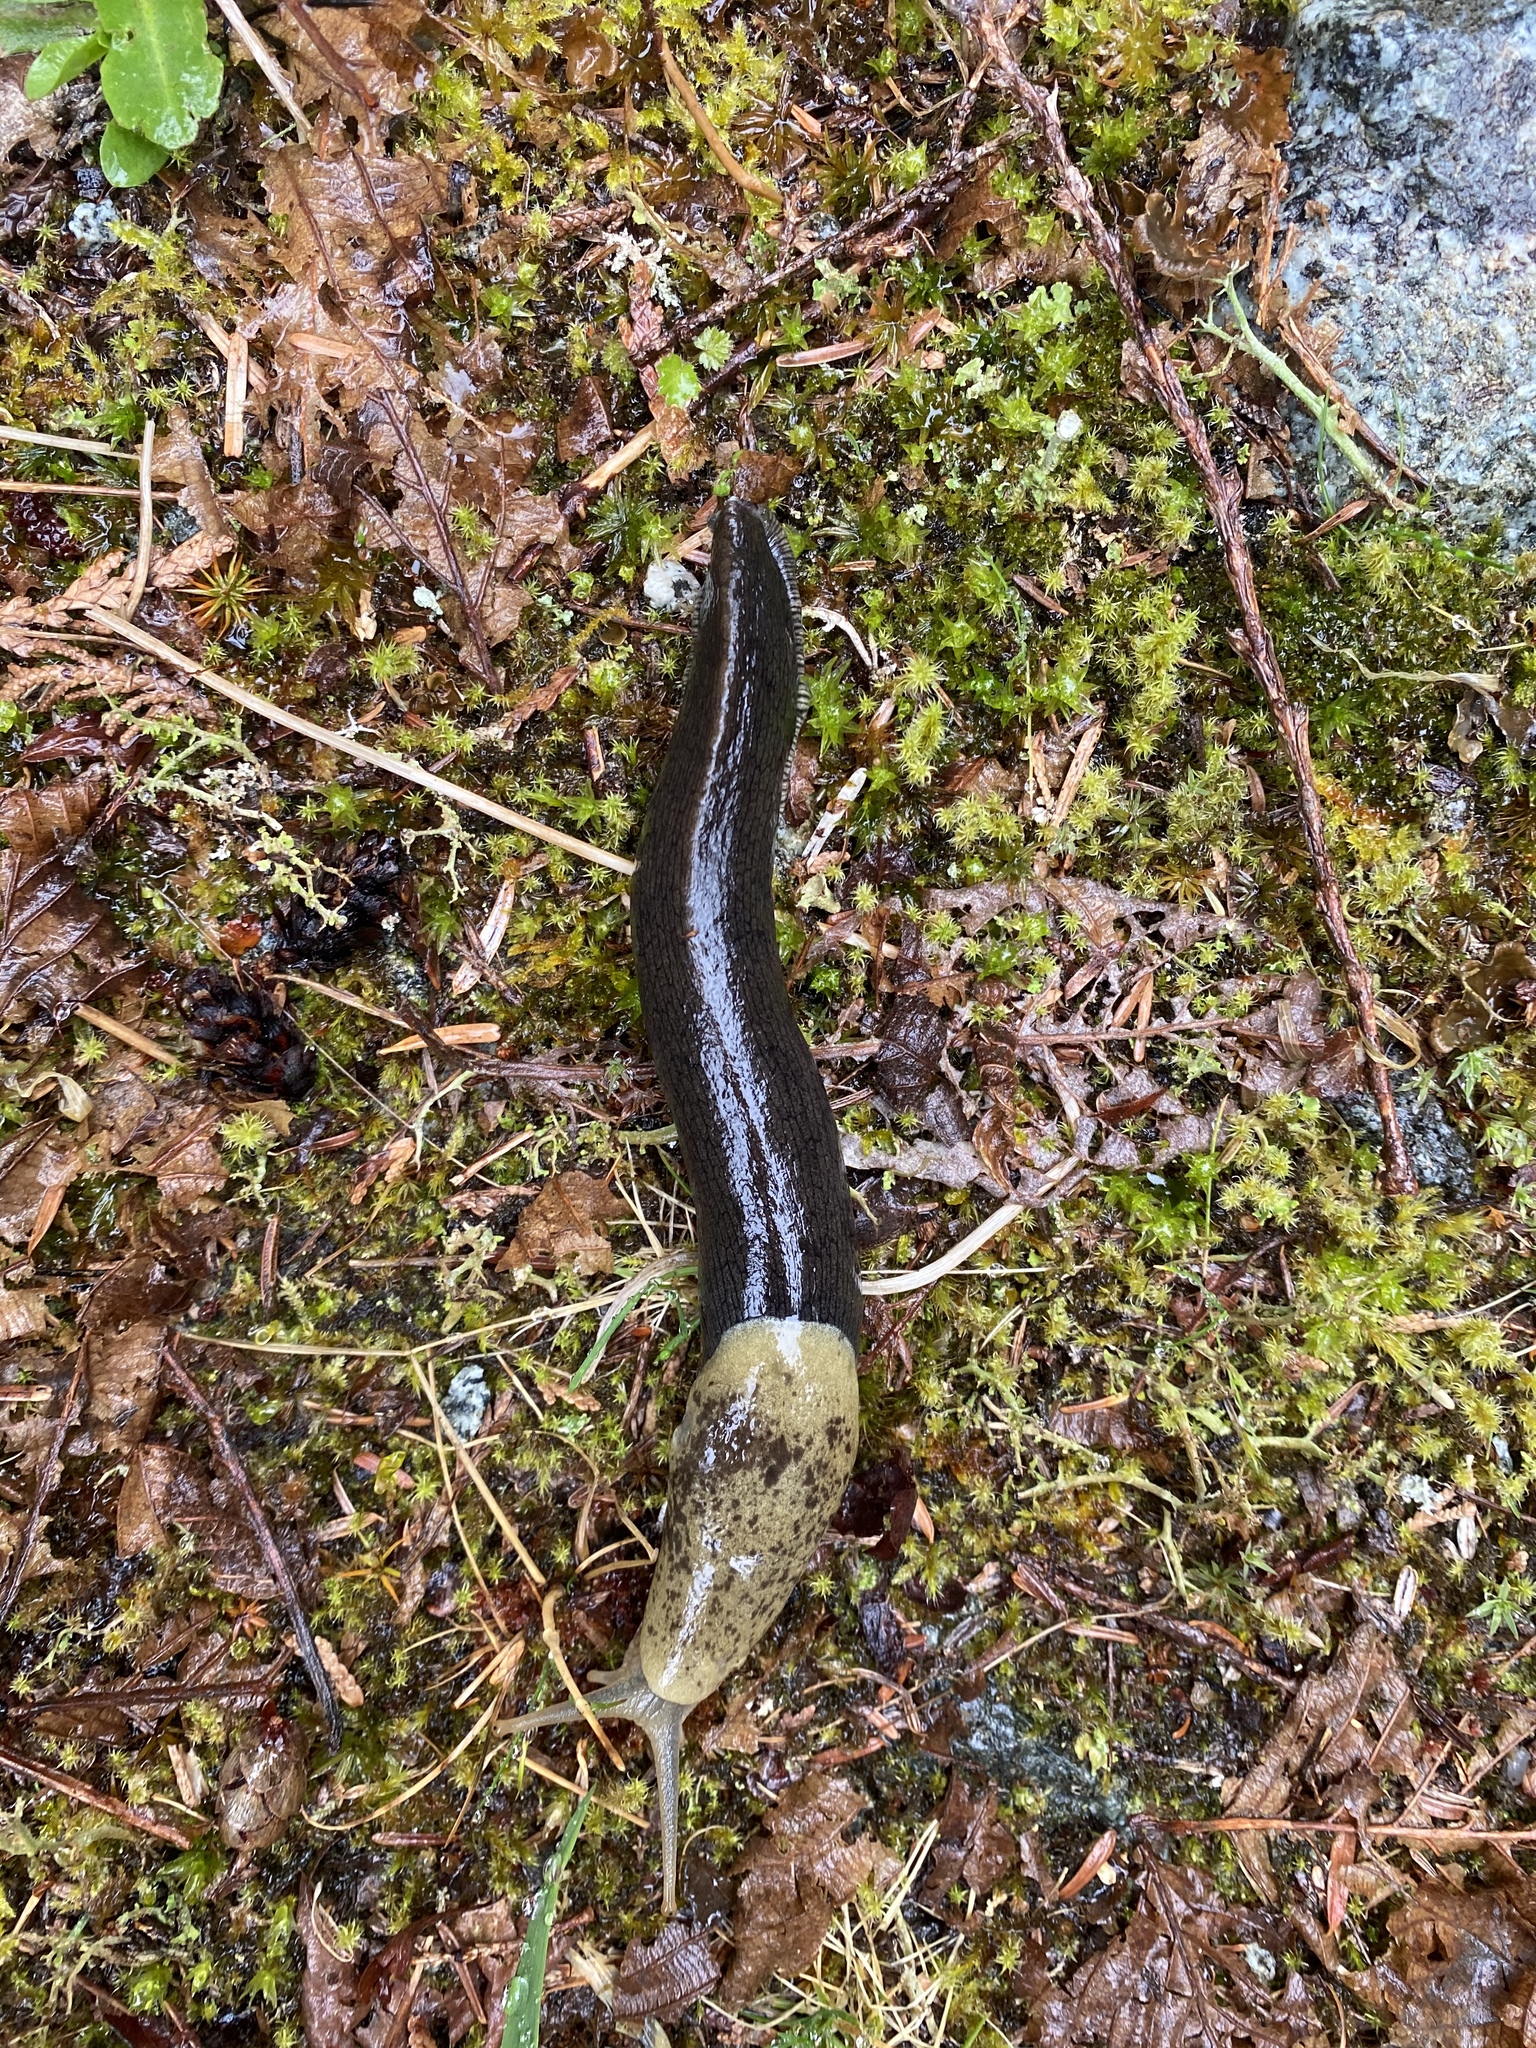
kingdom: Animalia
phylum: Mollusca
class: Gastropoda
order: Stylommatophora
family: Ariolimacidae
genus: Ariolimax
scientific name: Ariolimax columbianus
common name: Pacific banana slug
